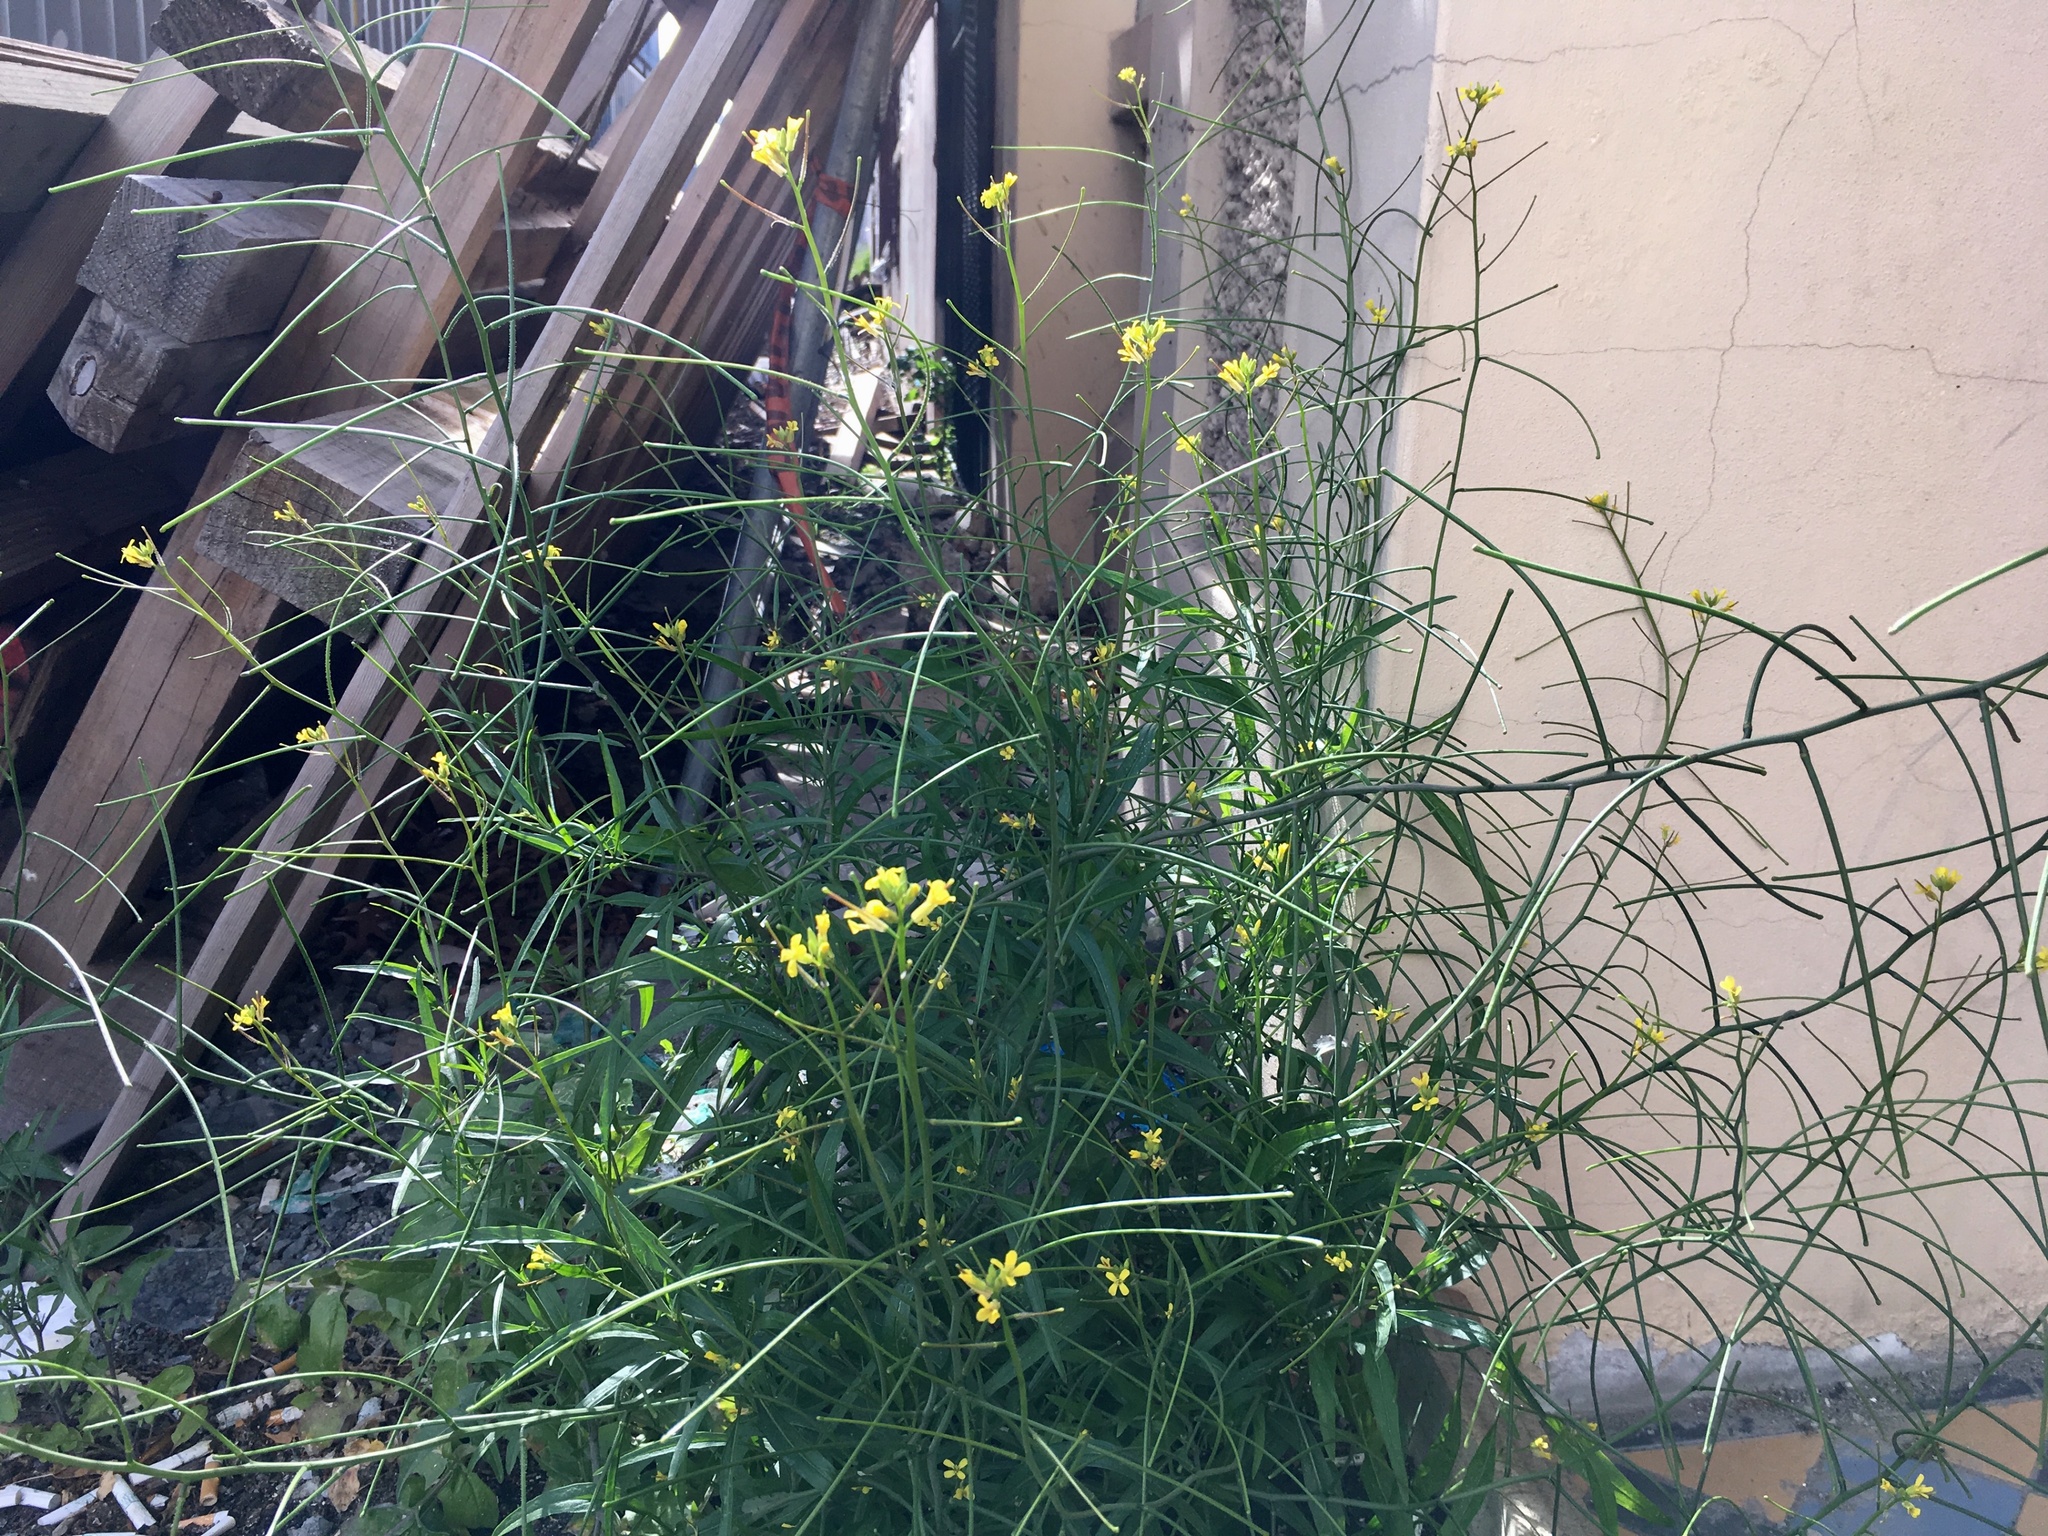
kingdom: Plantae
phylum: Tracheophyta
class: Magnoliopsida
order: Brassicales
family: Brassicaceae
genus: Sisymbrium
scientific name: Sisymbrium orientale
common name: Eastern rocket
